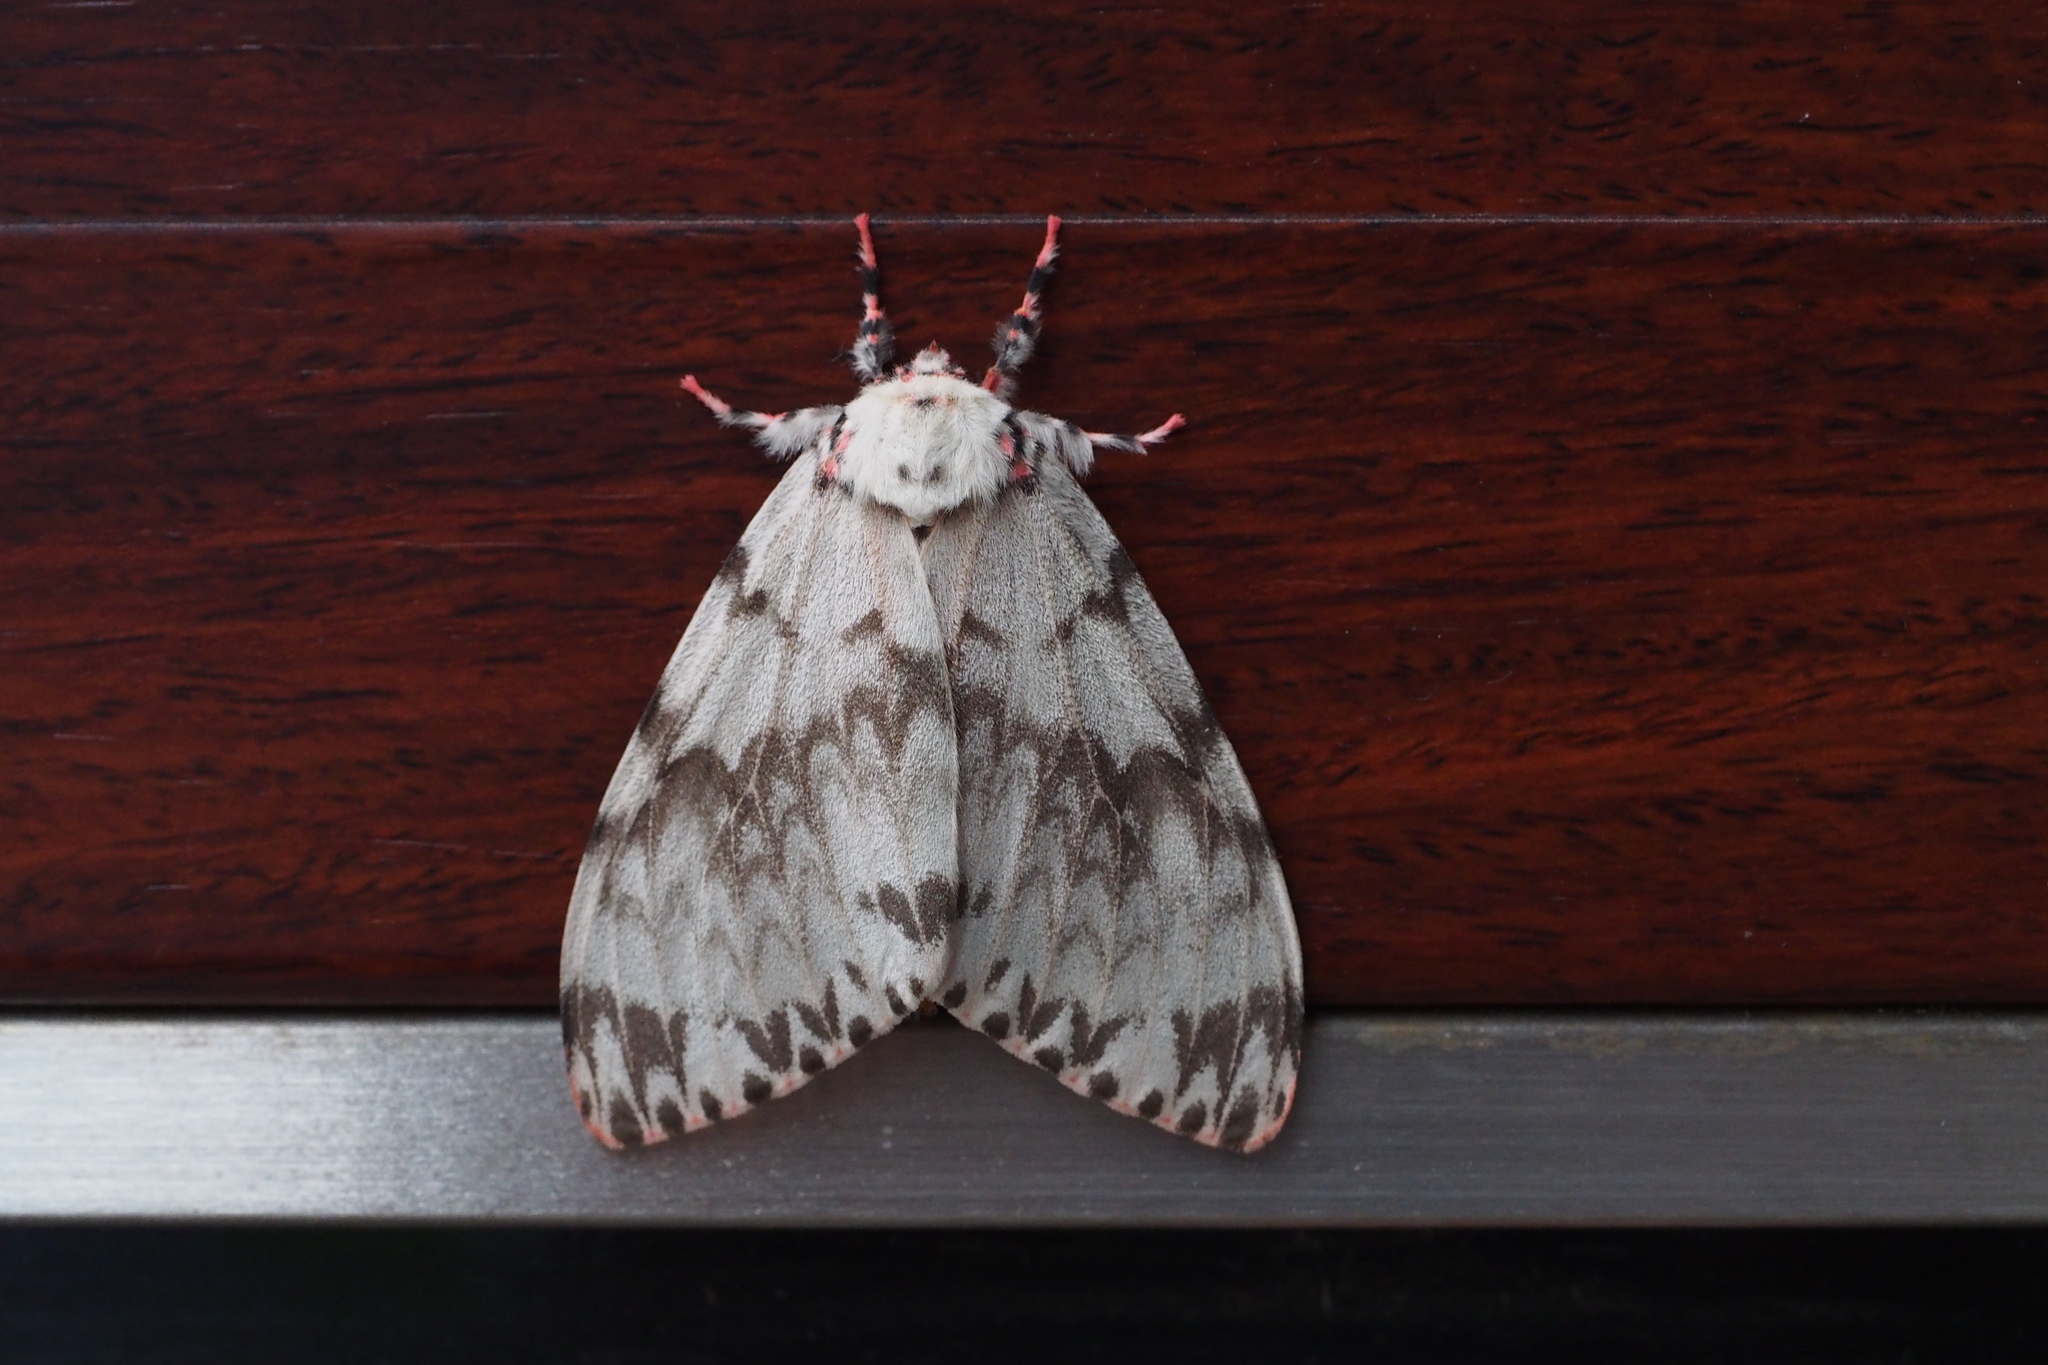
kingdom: Animalia
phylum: Arthropoda
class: Insecta
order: Lepidoptera
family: Erebidae
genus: Lymantria
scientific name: Lymantria mathura
